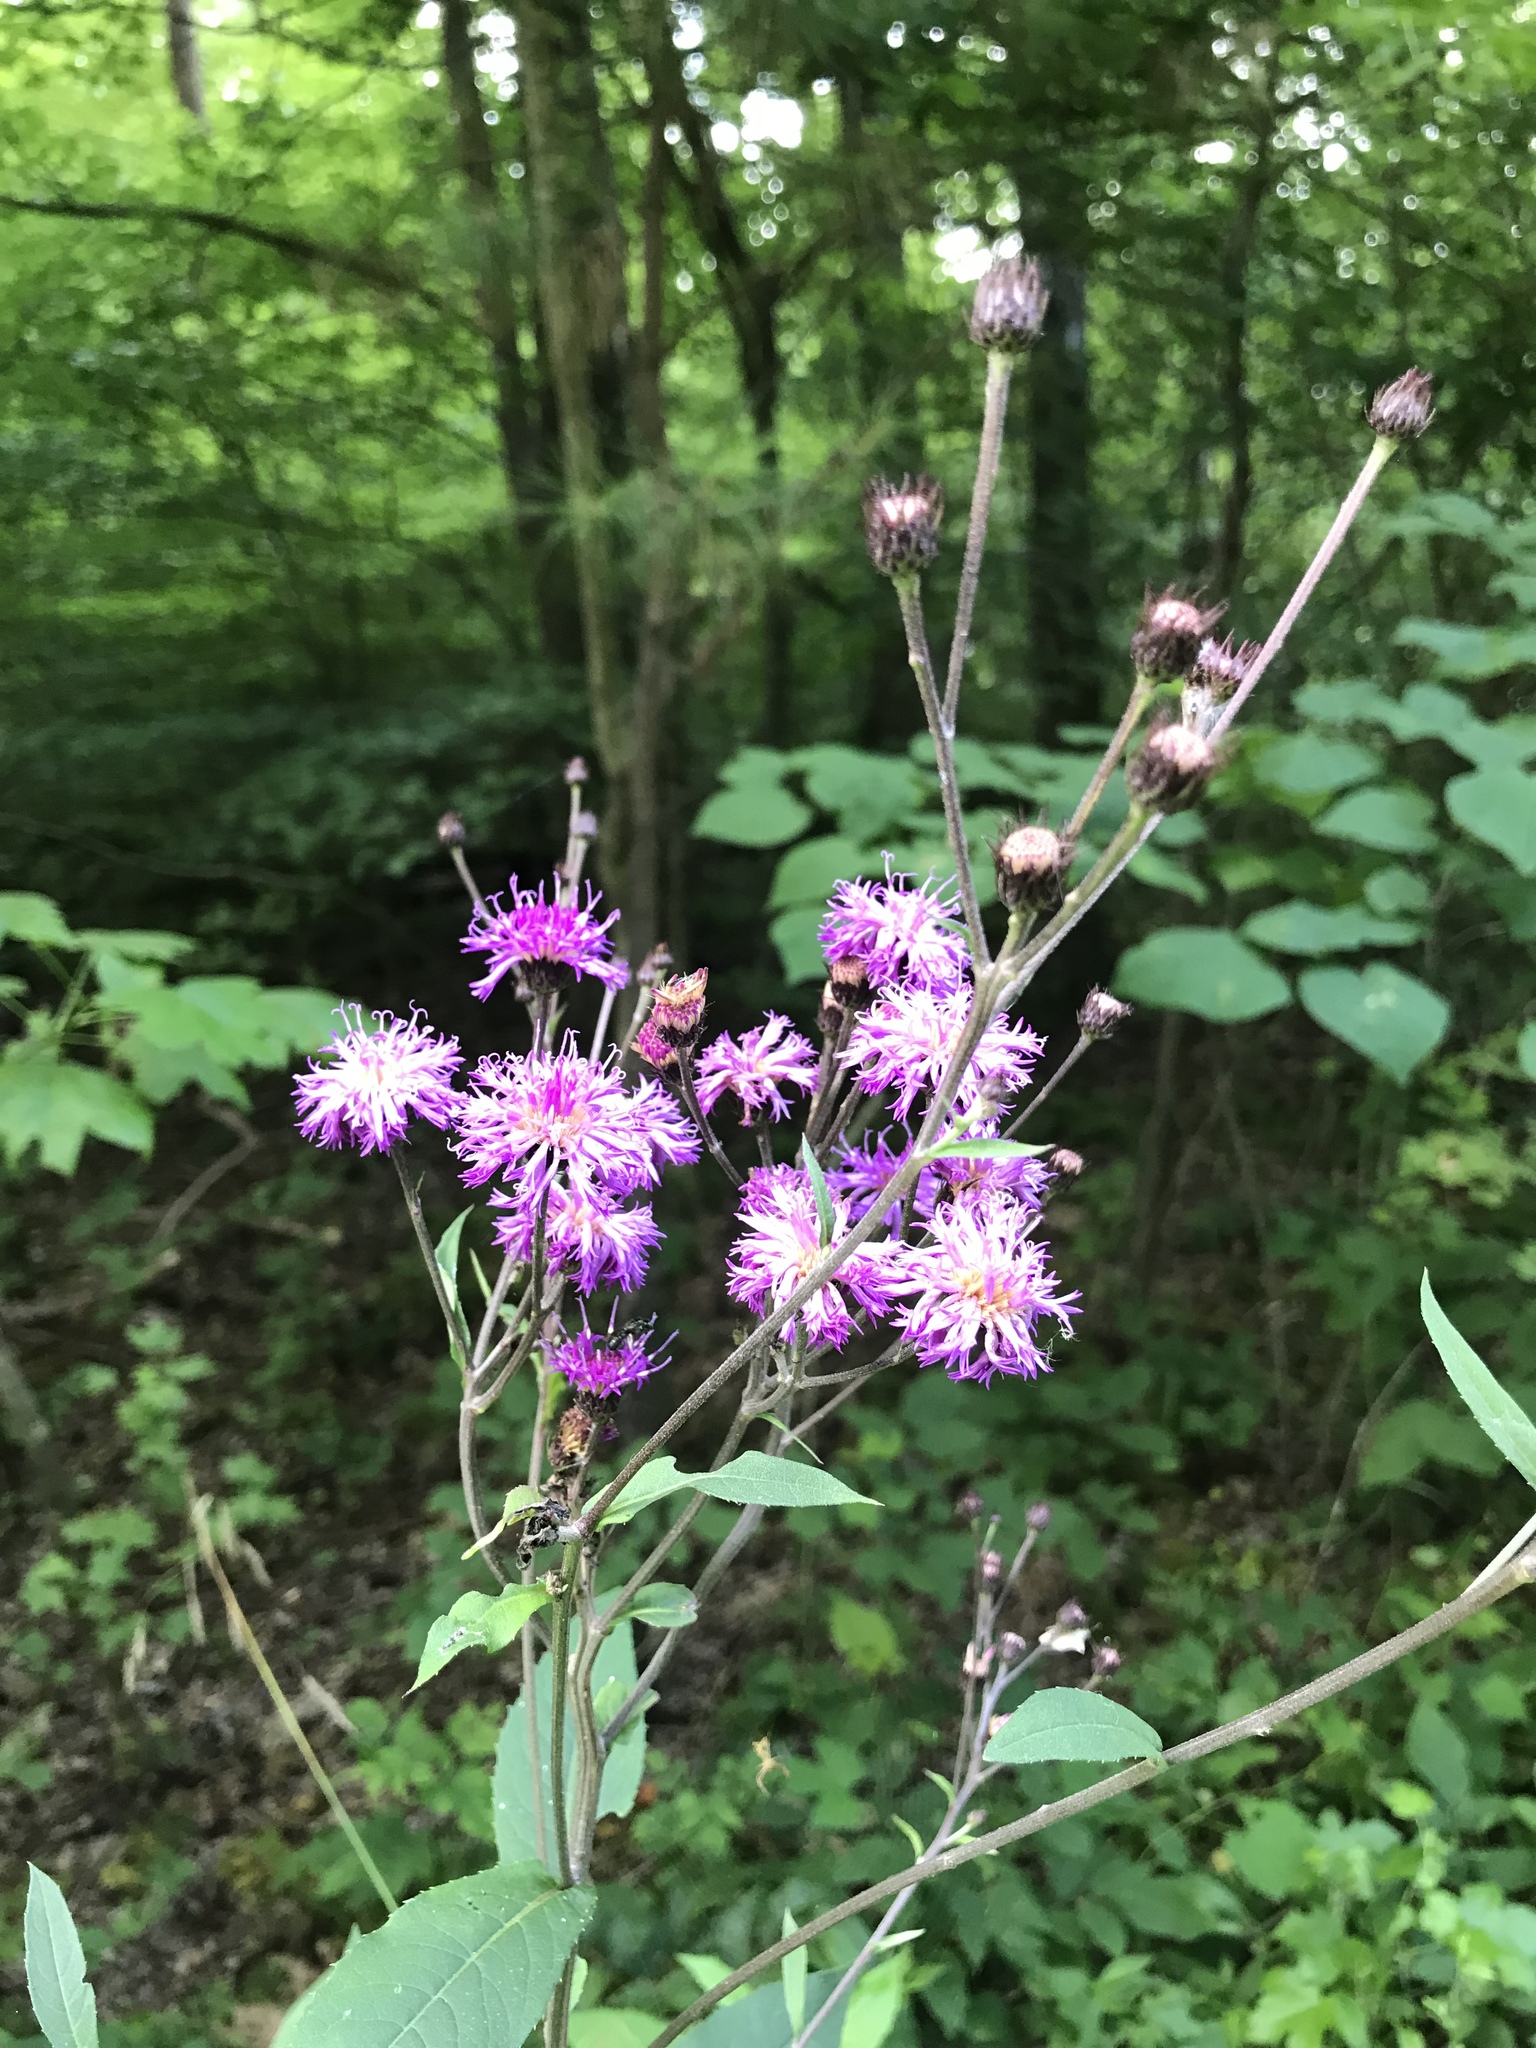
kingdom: Plantae
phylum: Tracheophyta
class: Magnoliopsida
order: Asterales
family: Asteraceae
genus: Vernonia
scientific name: Vernonia glauca
